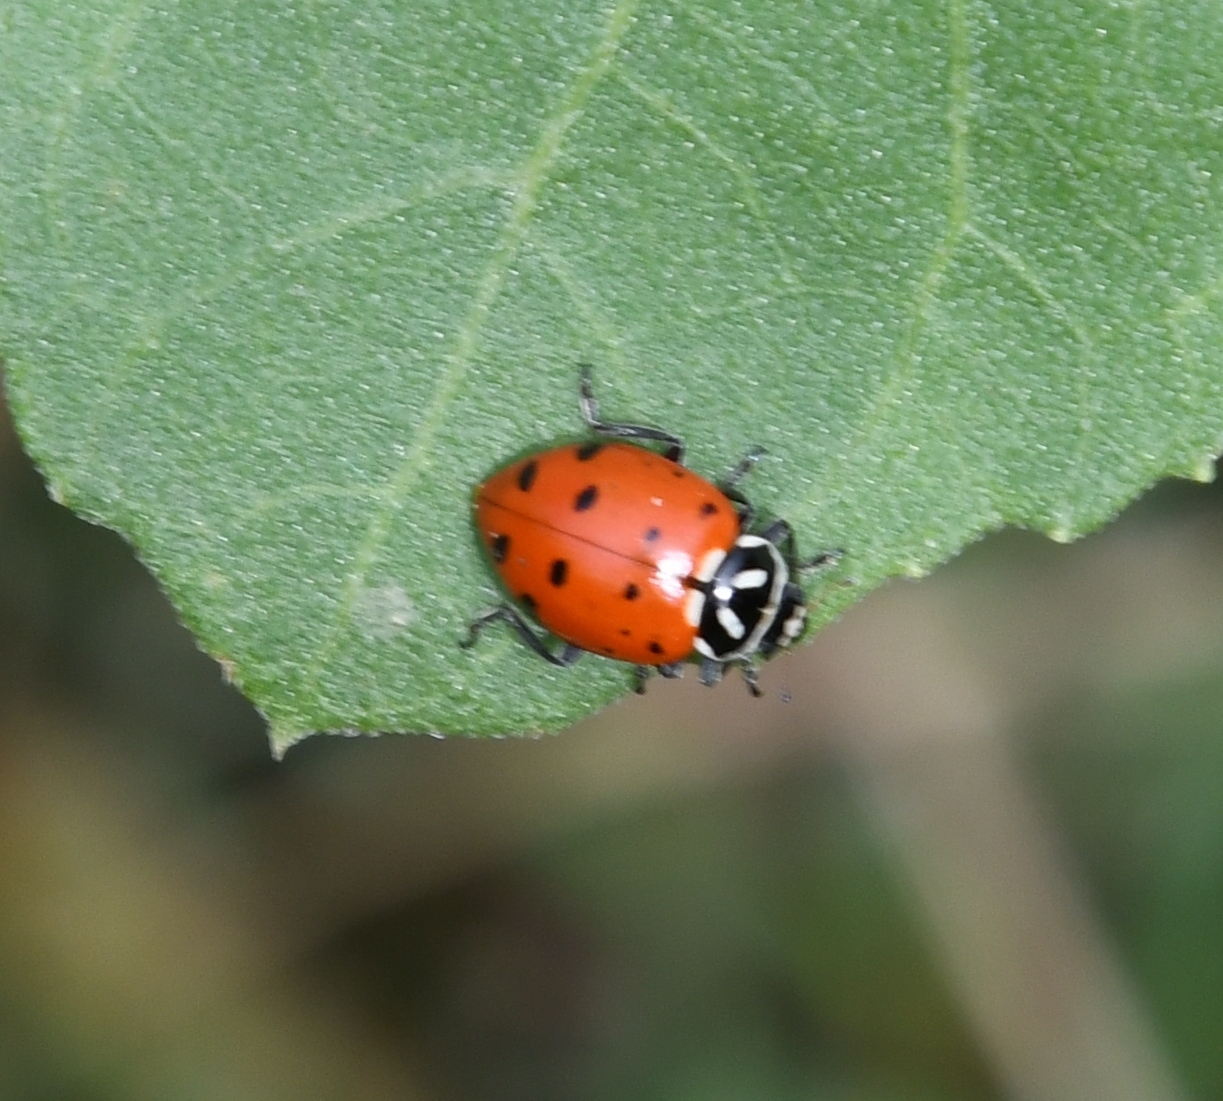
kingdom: Animalia
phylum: Arthropoda
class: Insecta
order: Coleoptera
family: Coccinellidae
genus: Hippodamia
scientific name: Hippodamia convergens
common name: Convergent lady beetle
